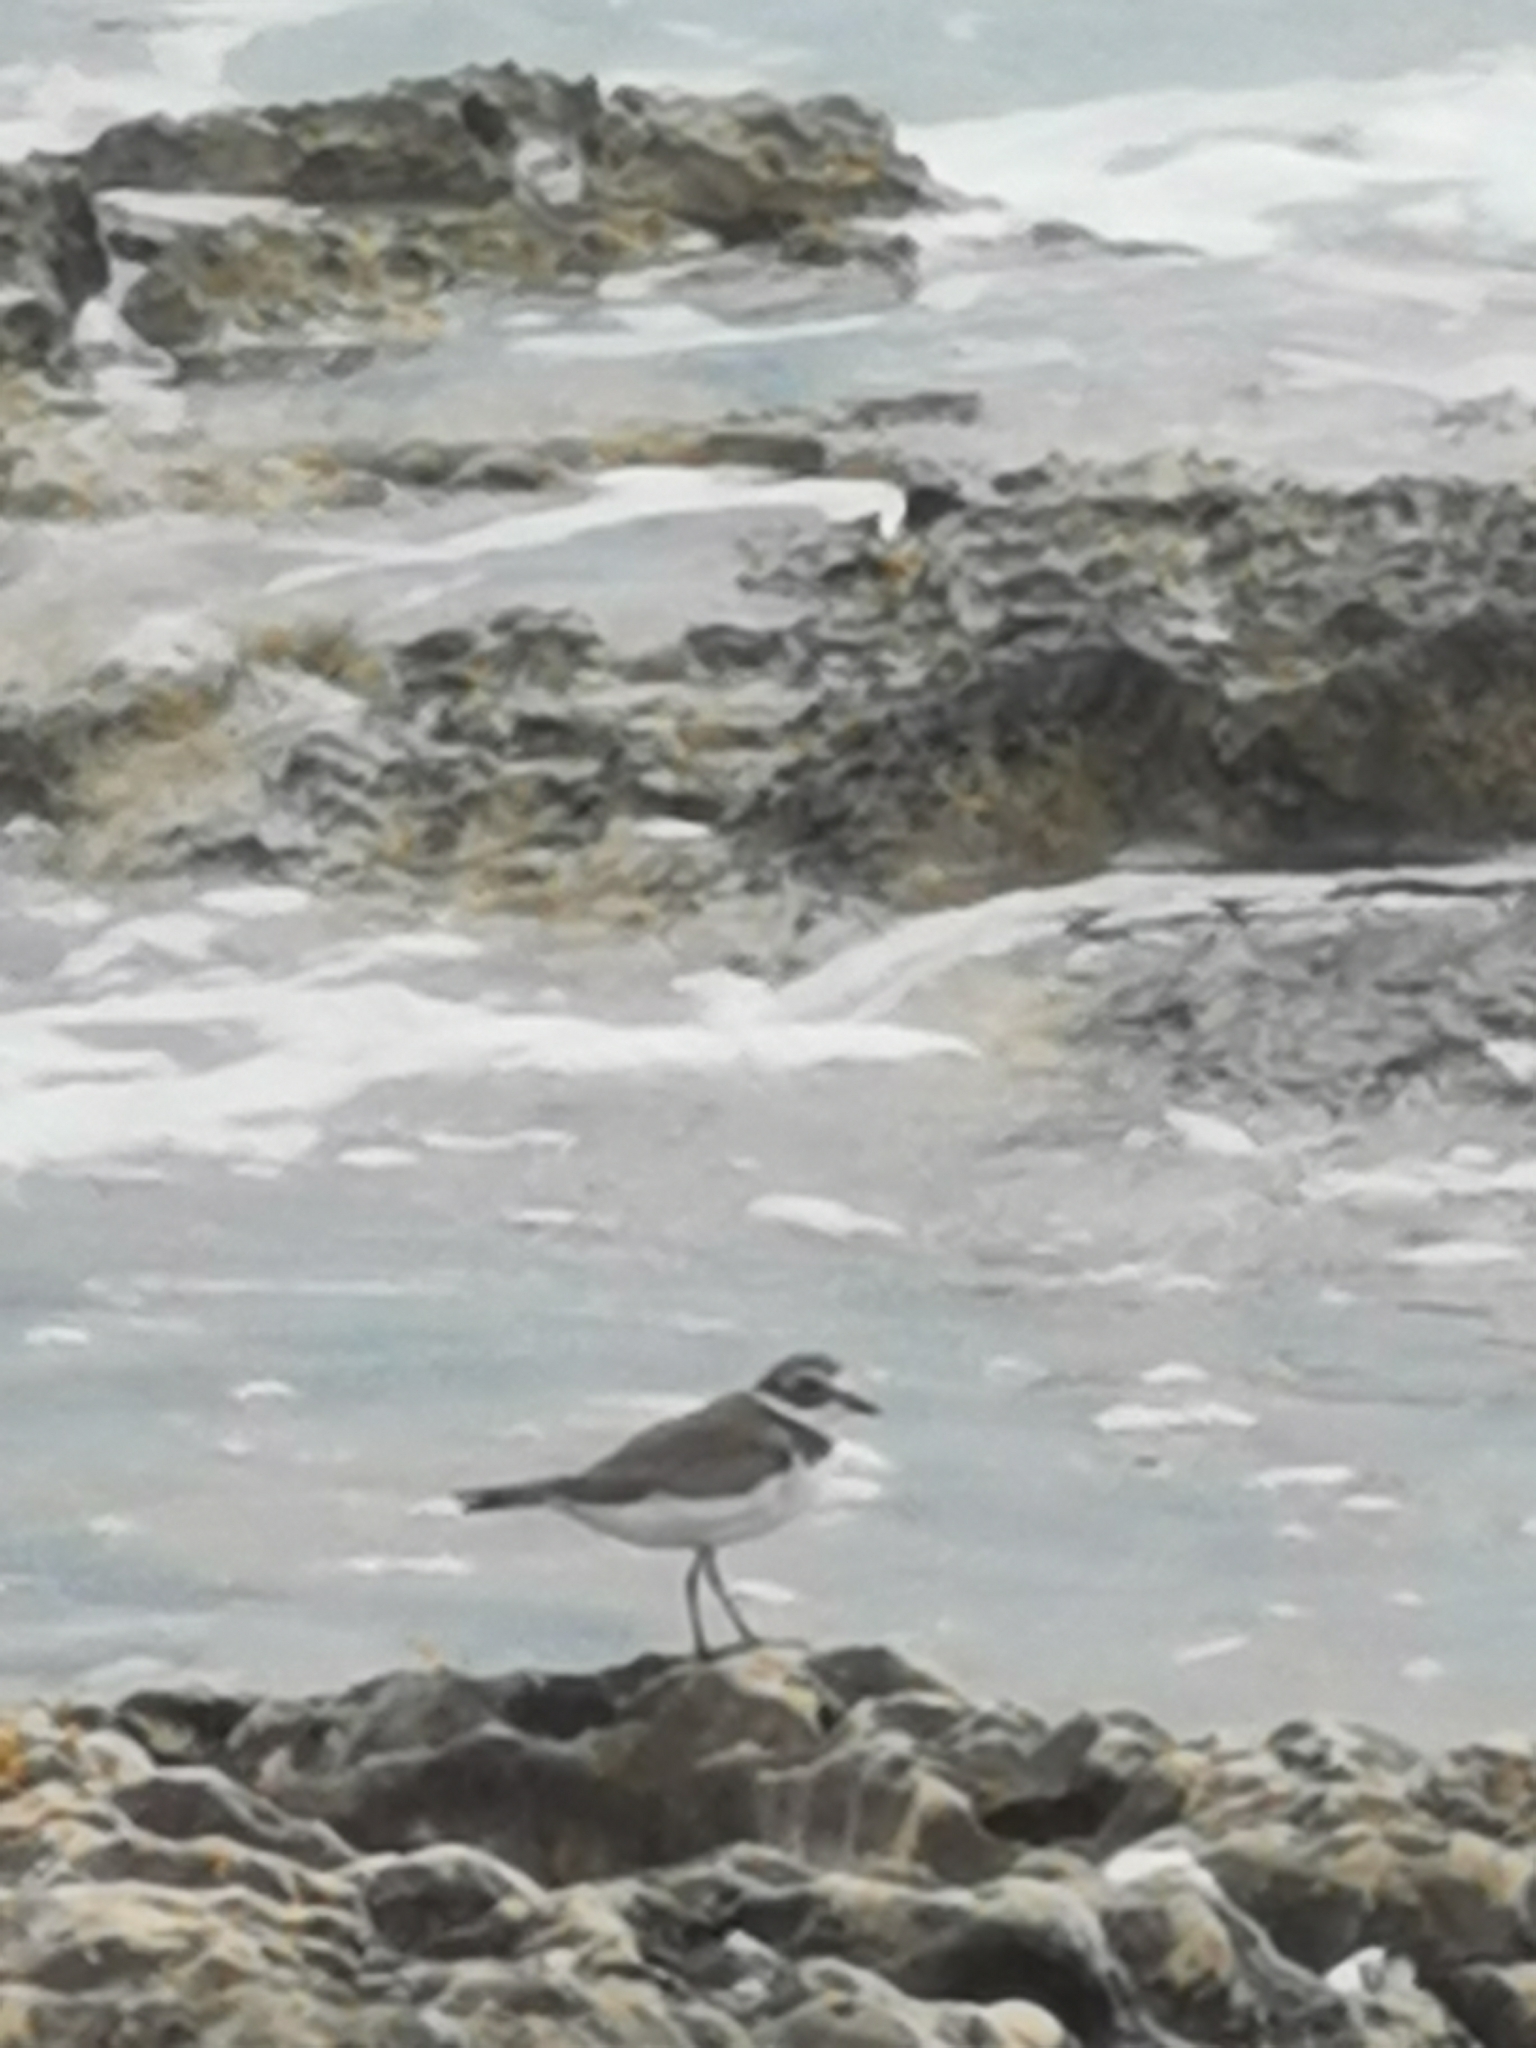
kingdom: Animalia
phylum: Chordata
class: Aves
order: Charadriiformes
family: Charadriidae
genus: Charadrius
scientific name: Charadrius semipalmatus
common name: Semipalmated plover
